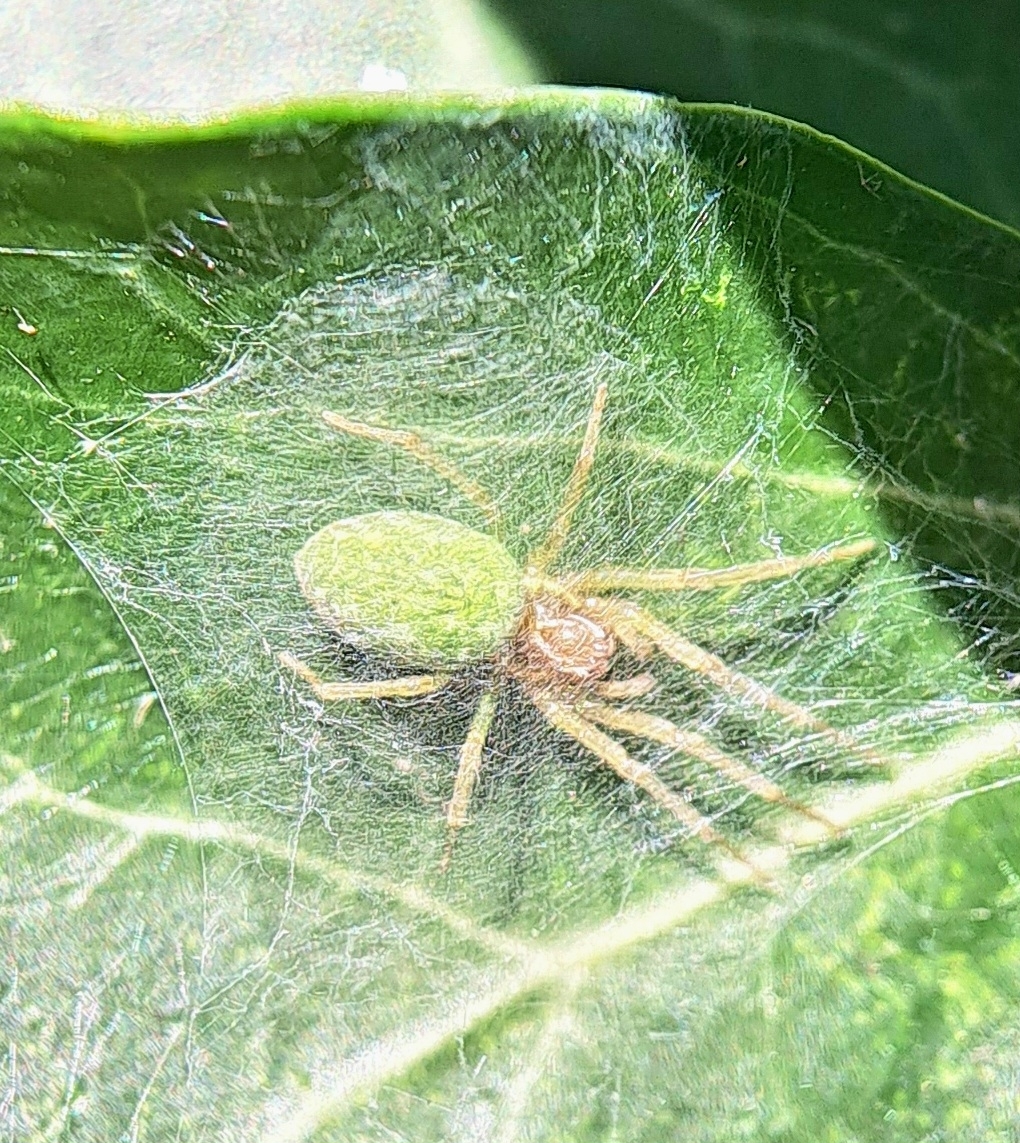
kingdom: Animalia
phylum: Arthropoda
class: Arachnida
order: Araneae
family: Dictynidae
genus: Nigma
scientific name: Nigma walckenaeri
